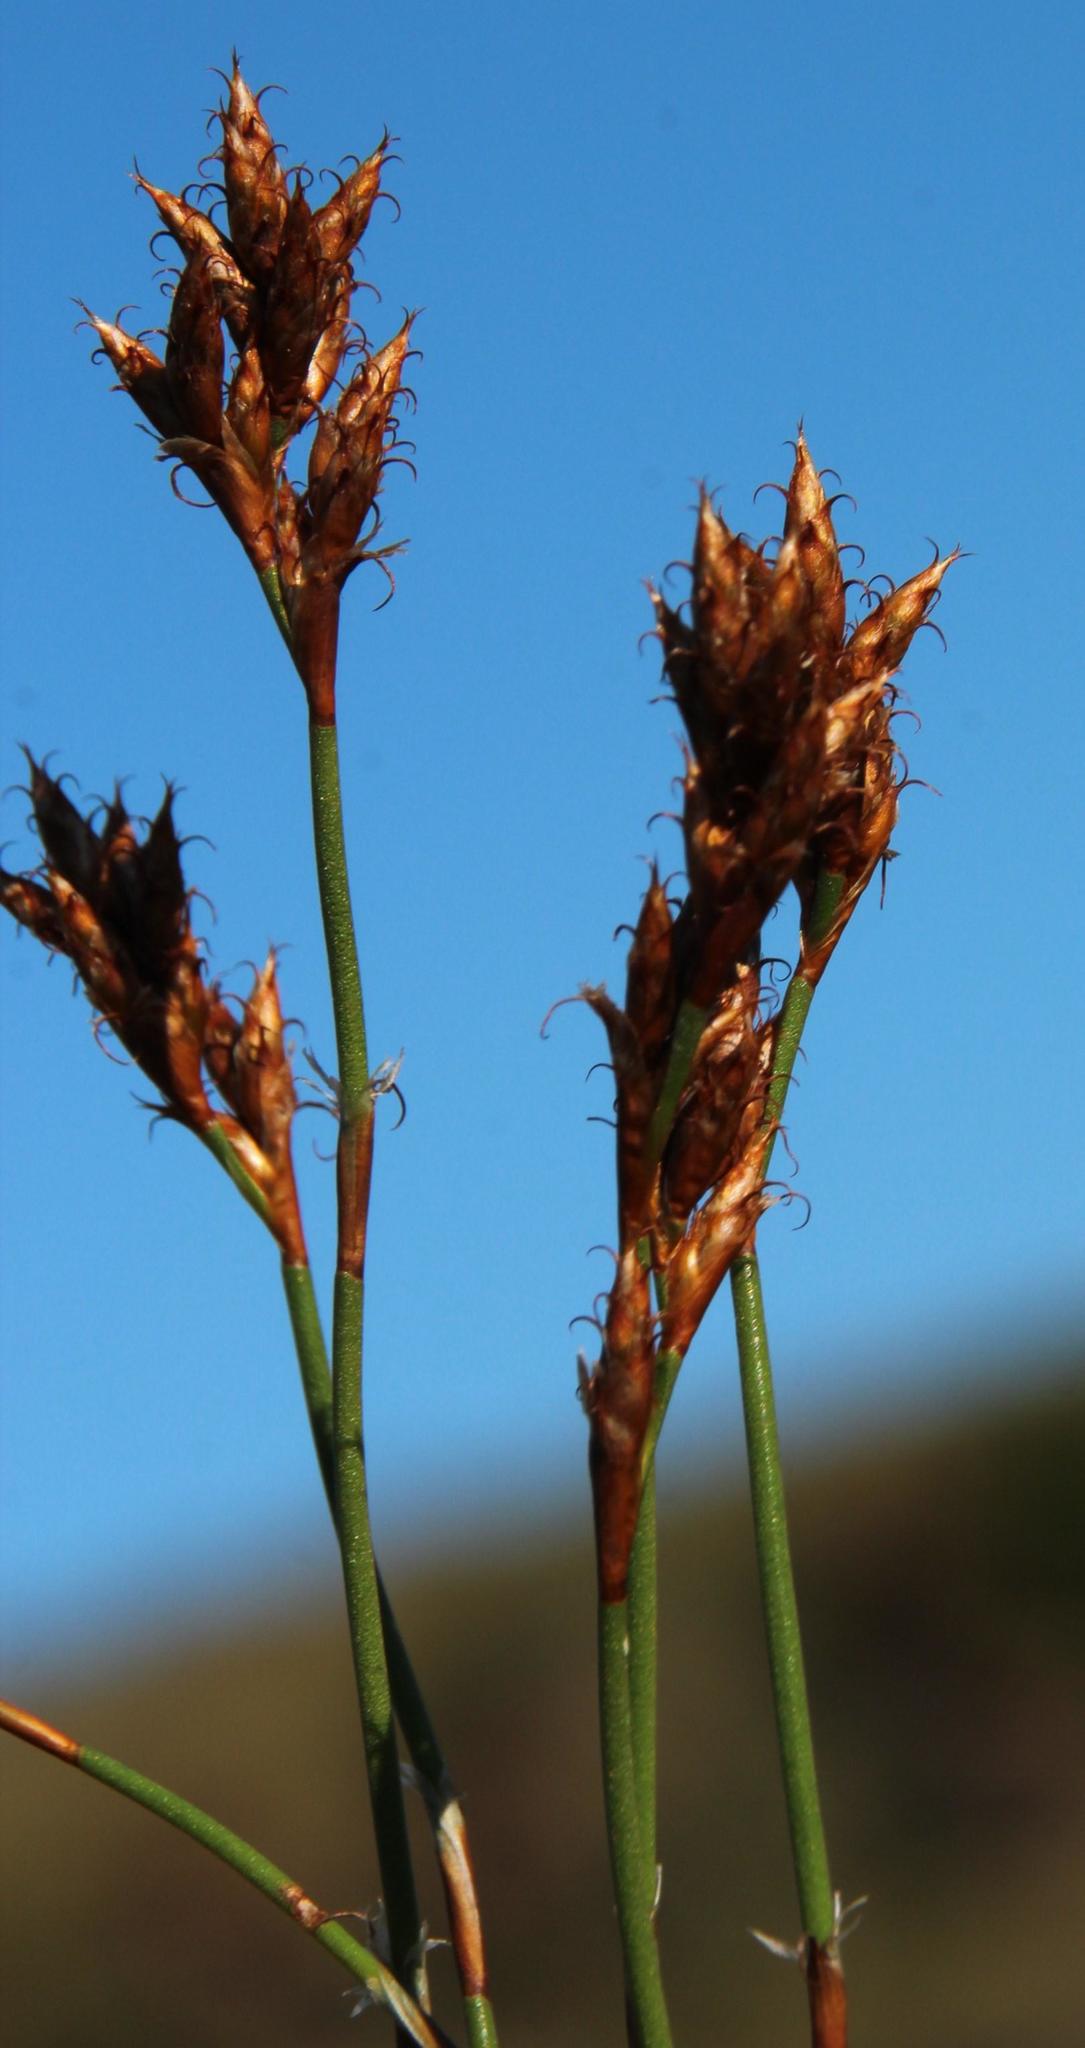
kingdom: Plantae
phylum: Tracheophyta
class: Liliopsida
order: Poales
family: Restionaceae
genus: Restio
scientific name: Restio capensis
